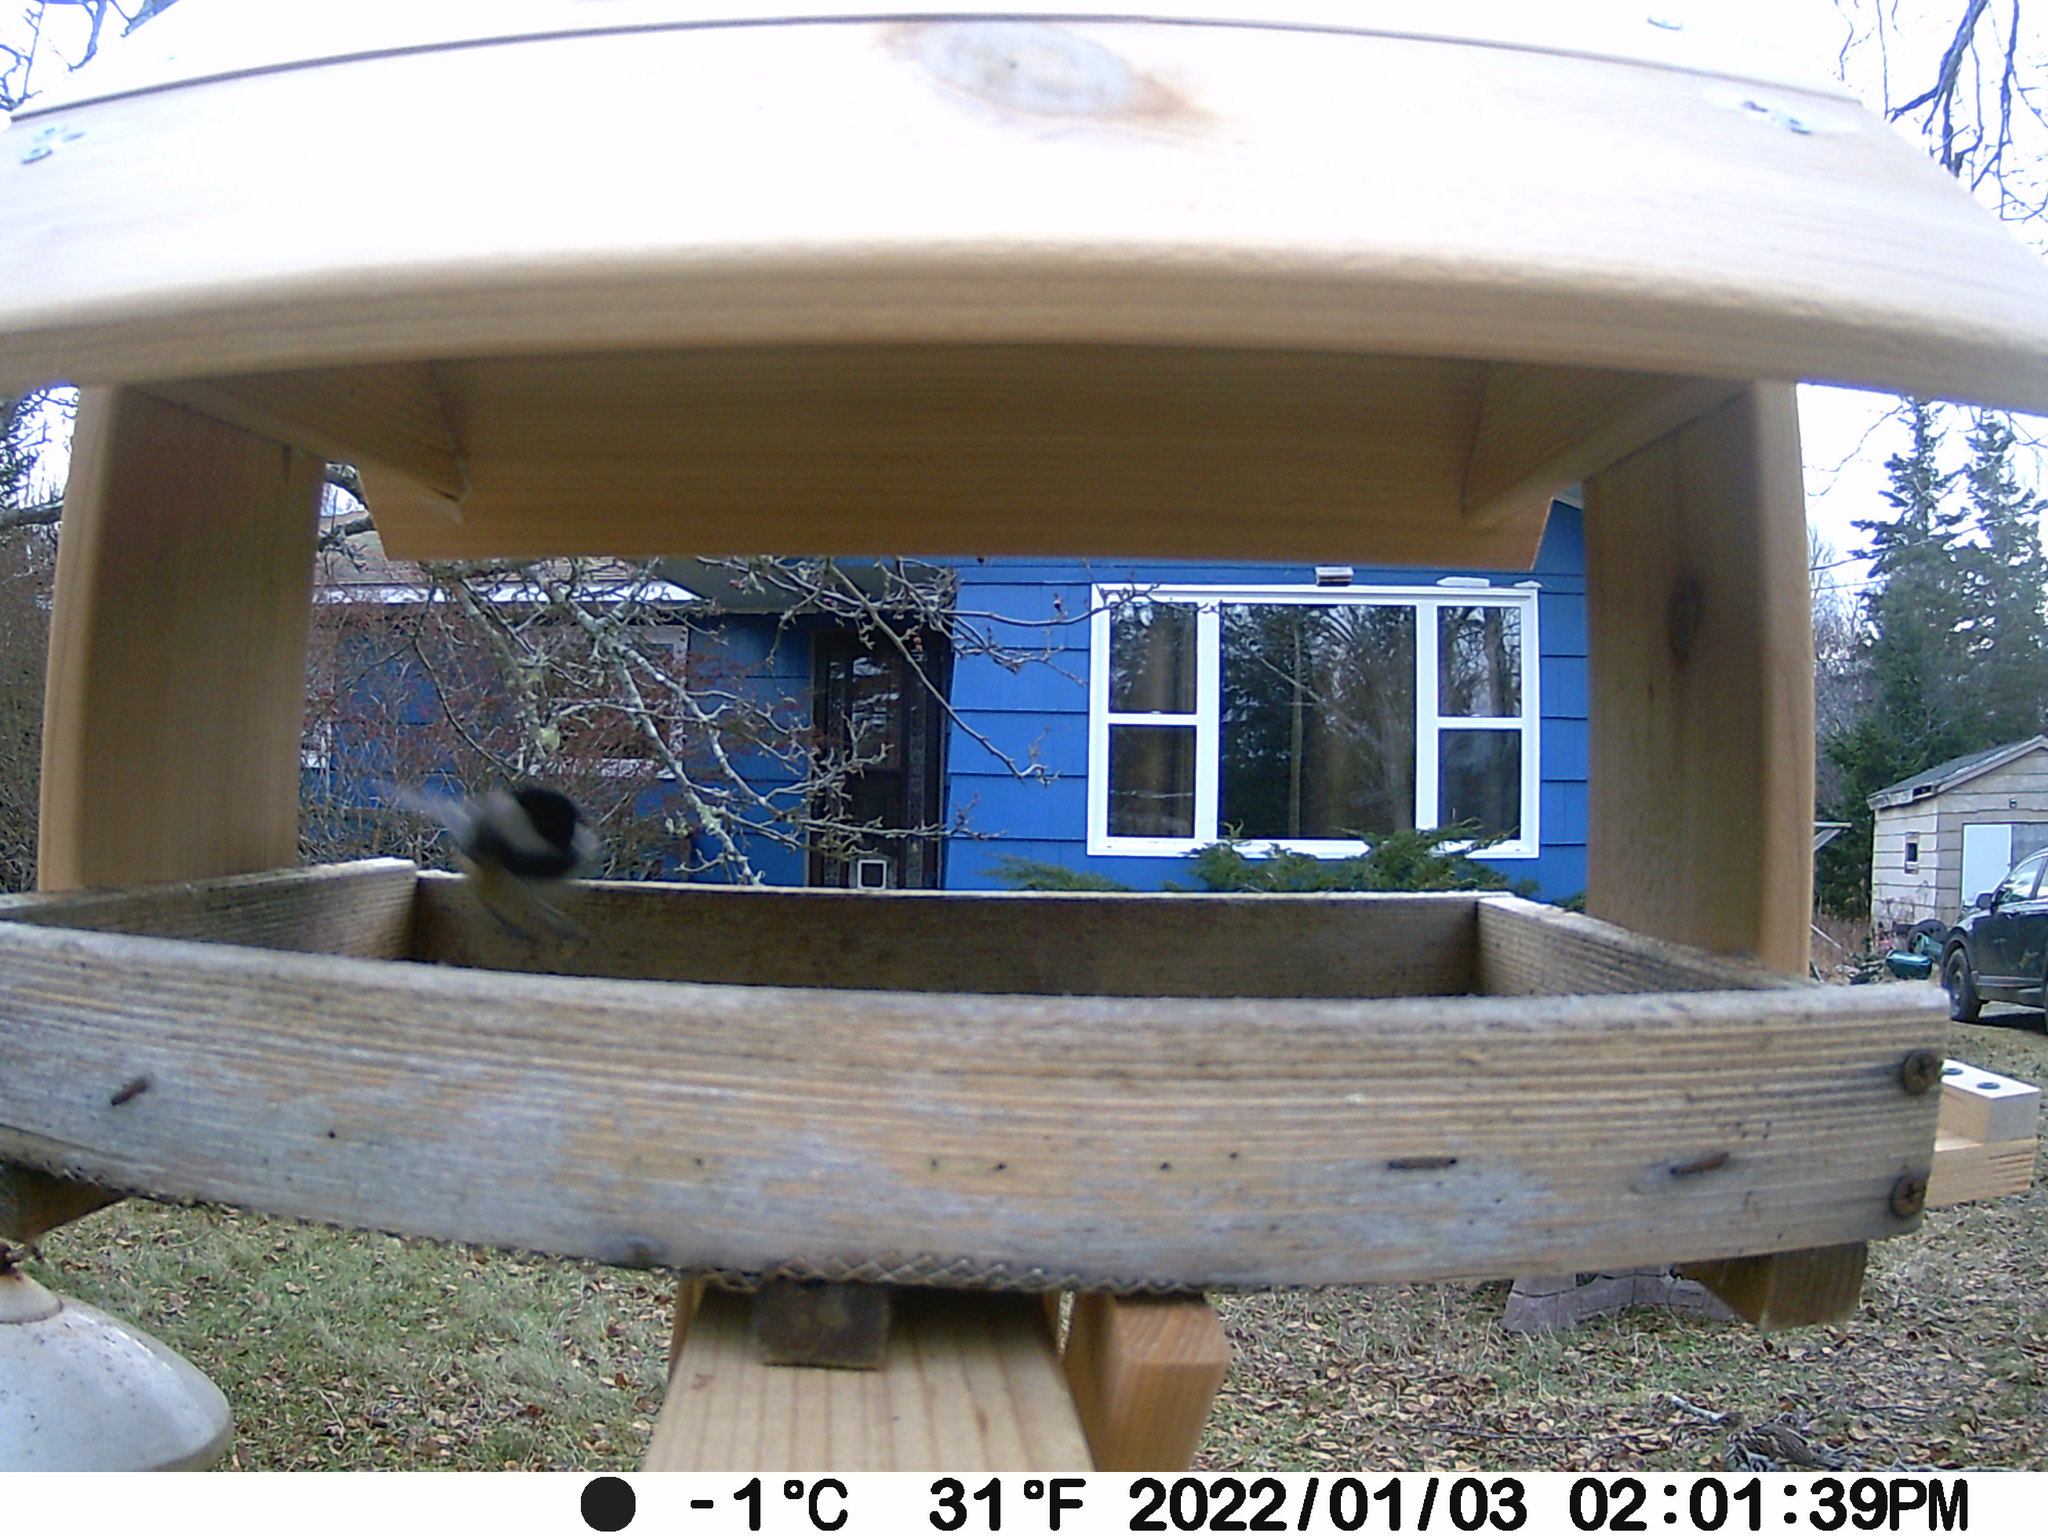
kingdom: Animalia
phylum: Chordata
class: Aves
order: Galliformes
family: Phasianidae
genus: Bonasa
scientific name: Bonasa umbellus
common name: Ruffed grouse
